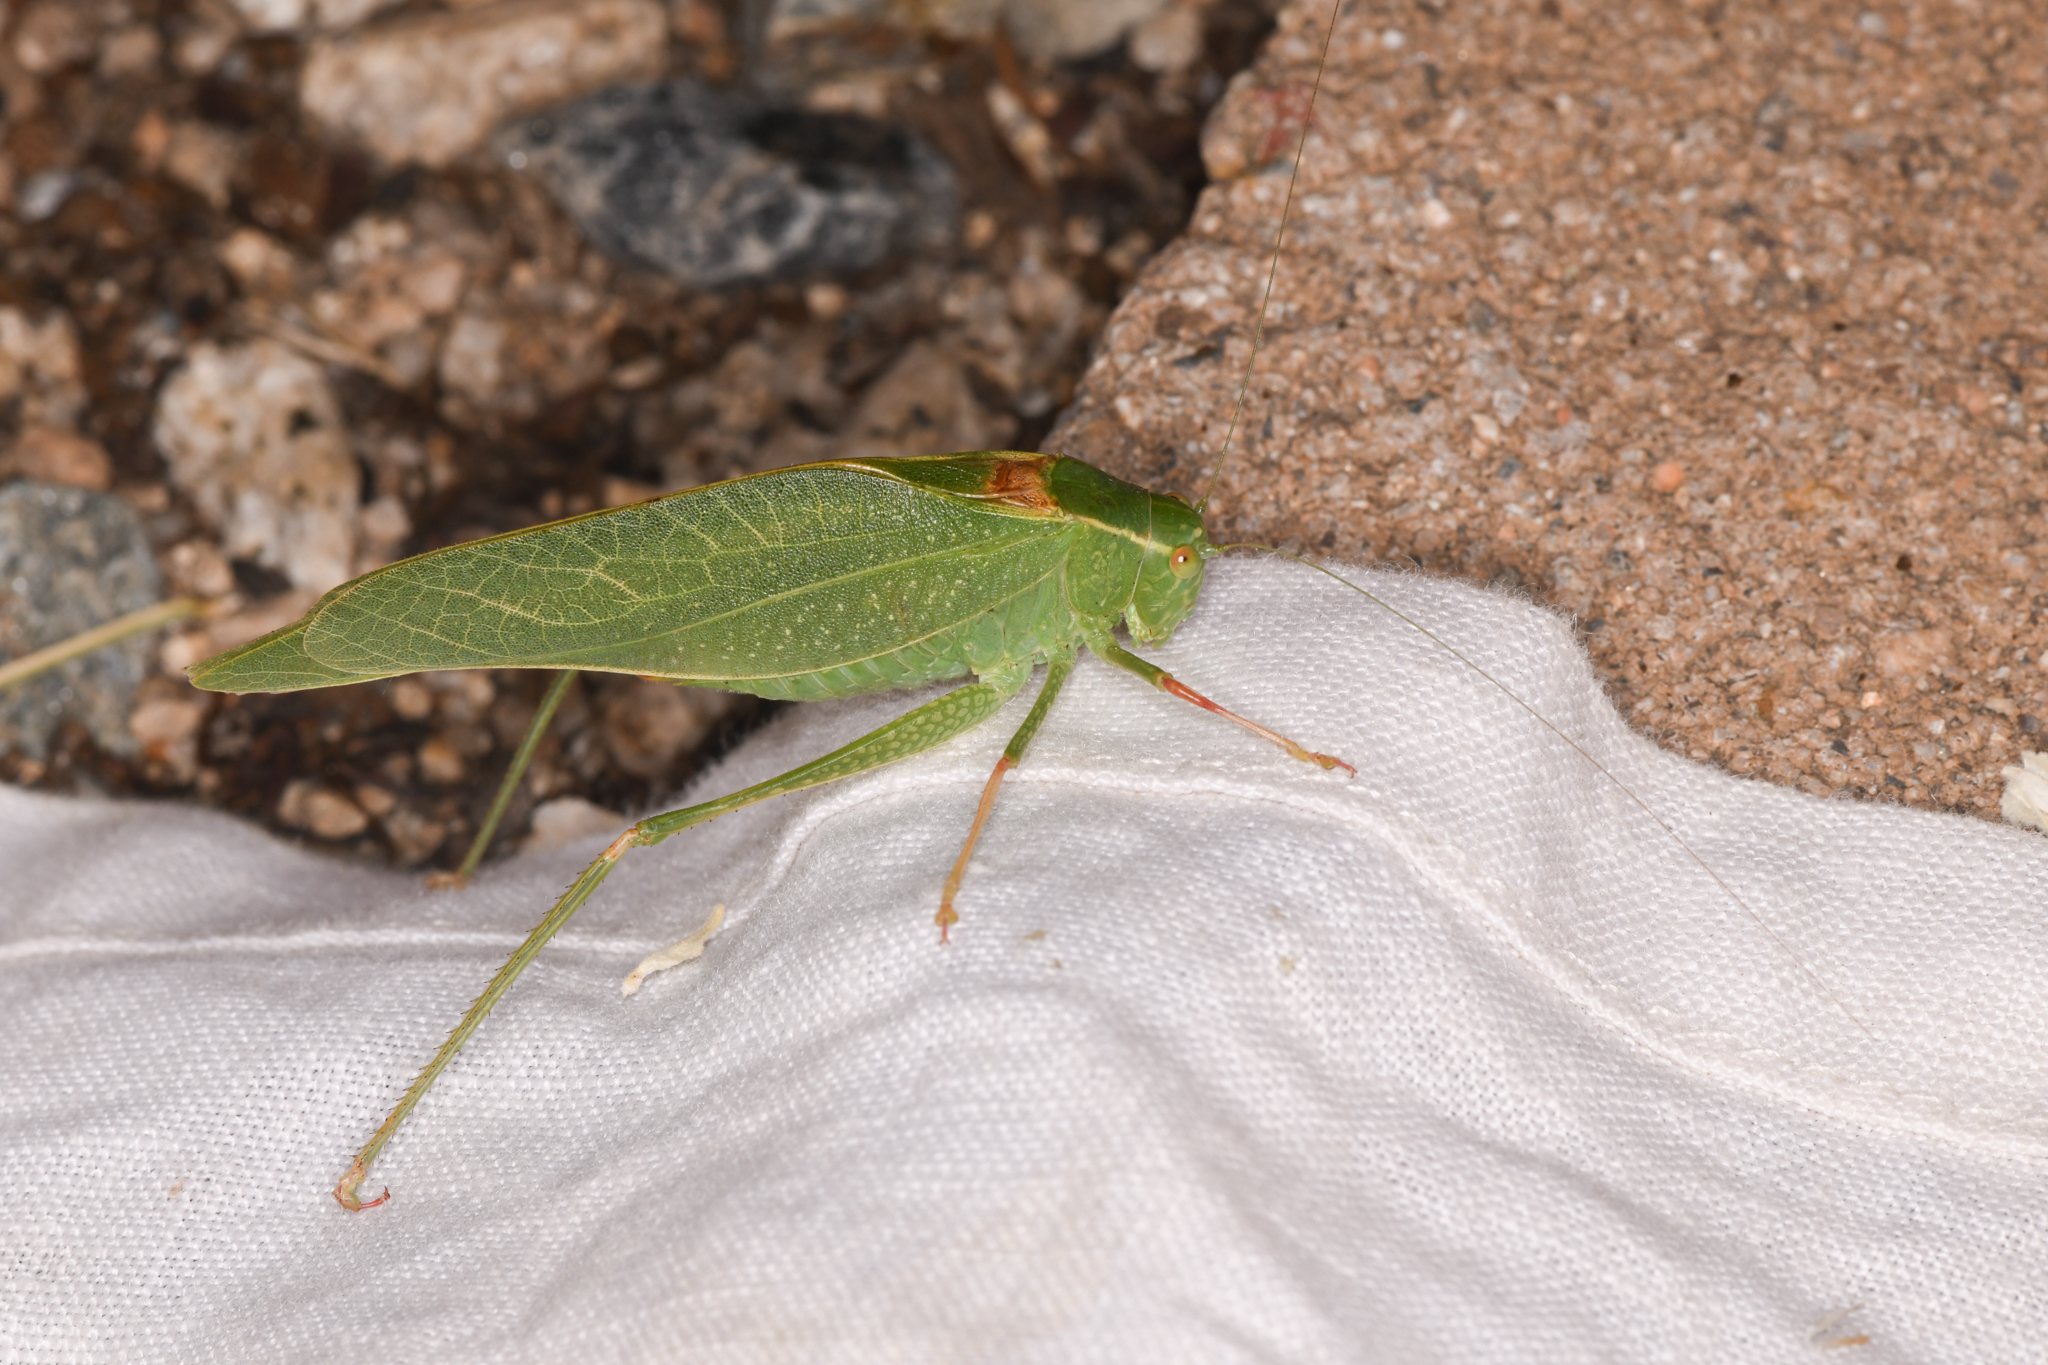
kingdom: Animalia
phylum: Arthropoda
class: Insecta
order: Orthoptera
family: Tettigoniidae
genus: Microcentrum
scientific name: Microcentrum californicum
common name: California angle-wing
